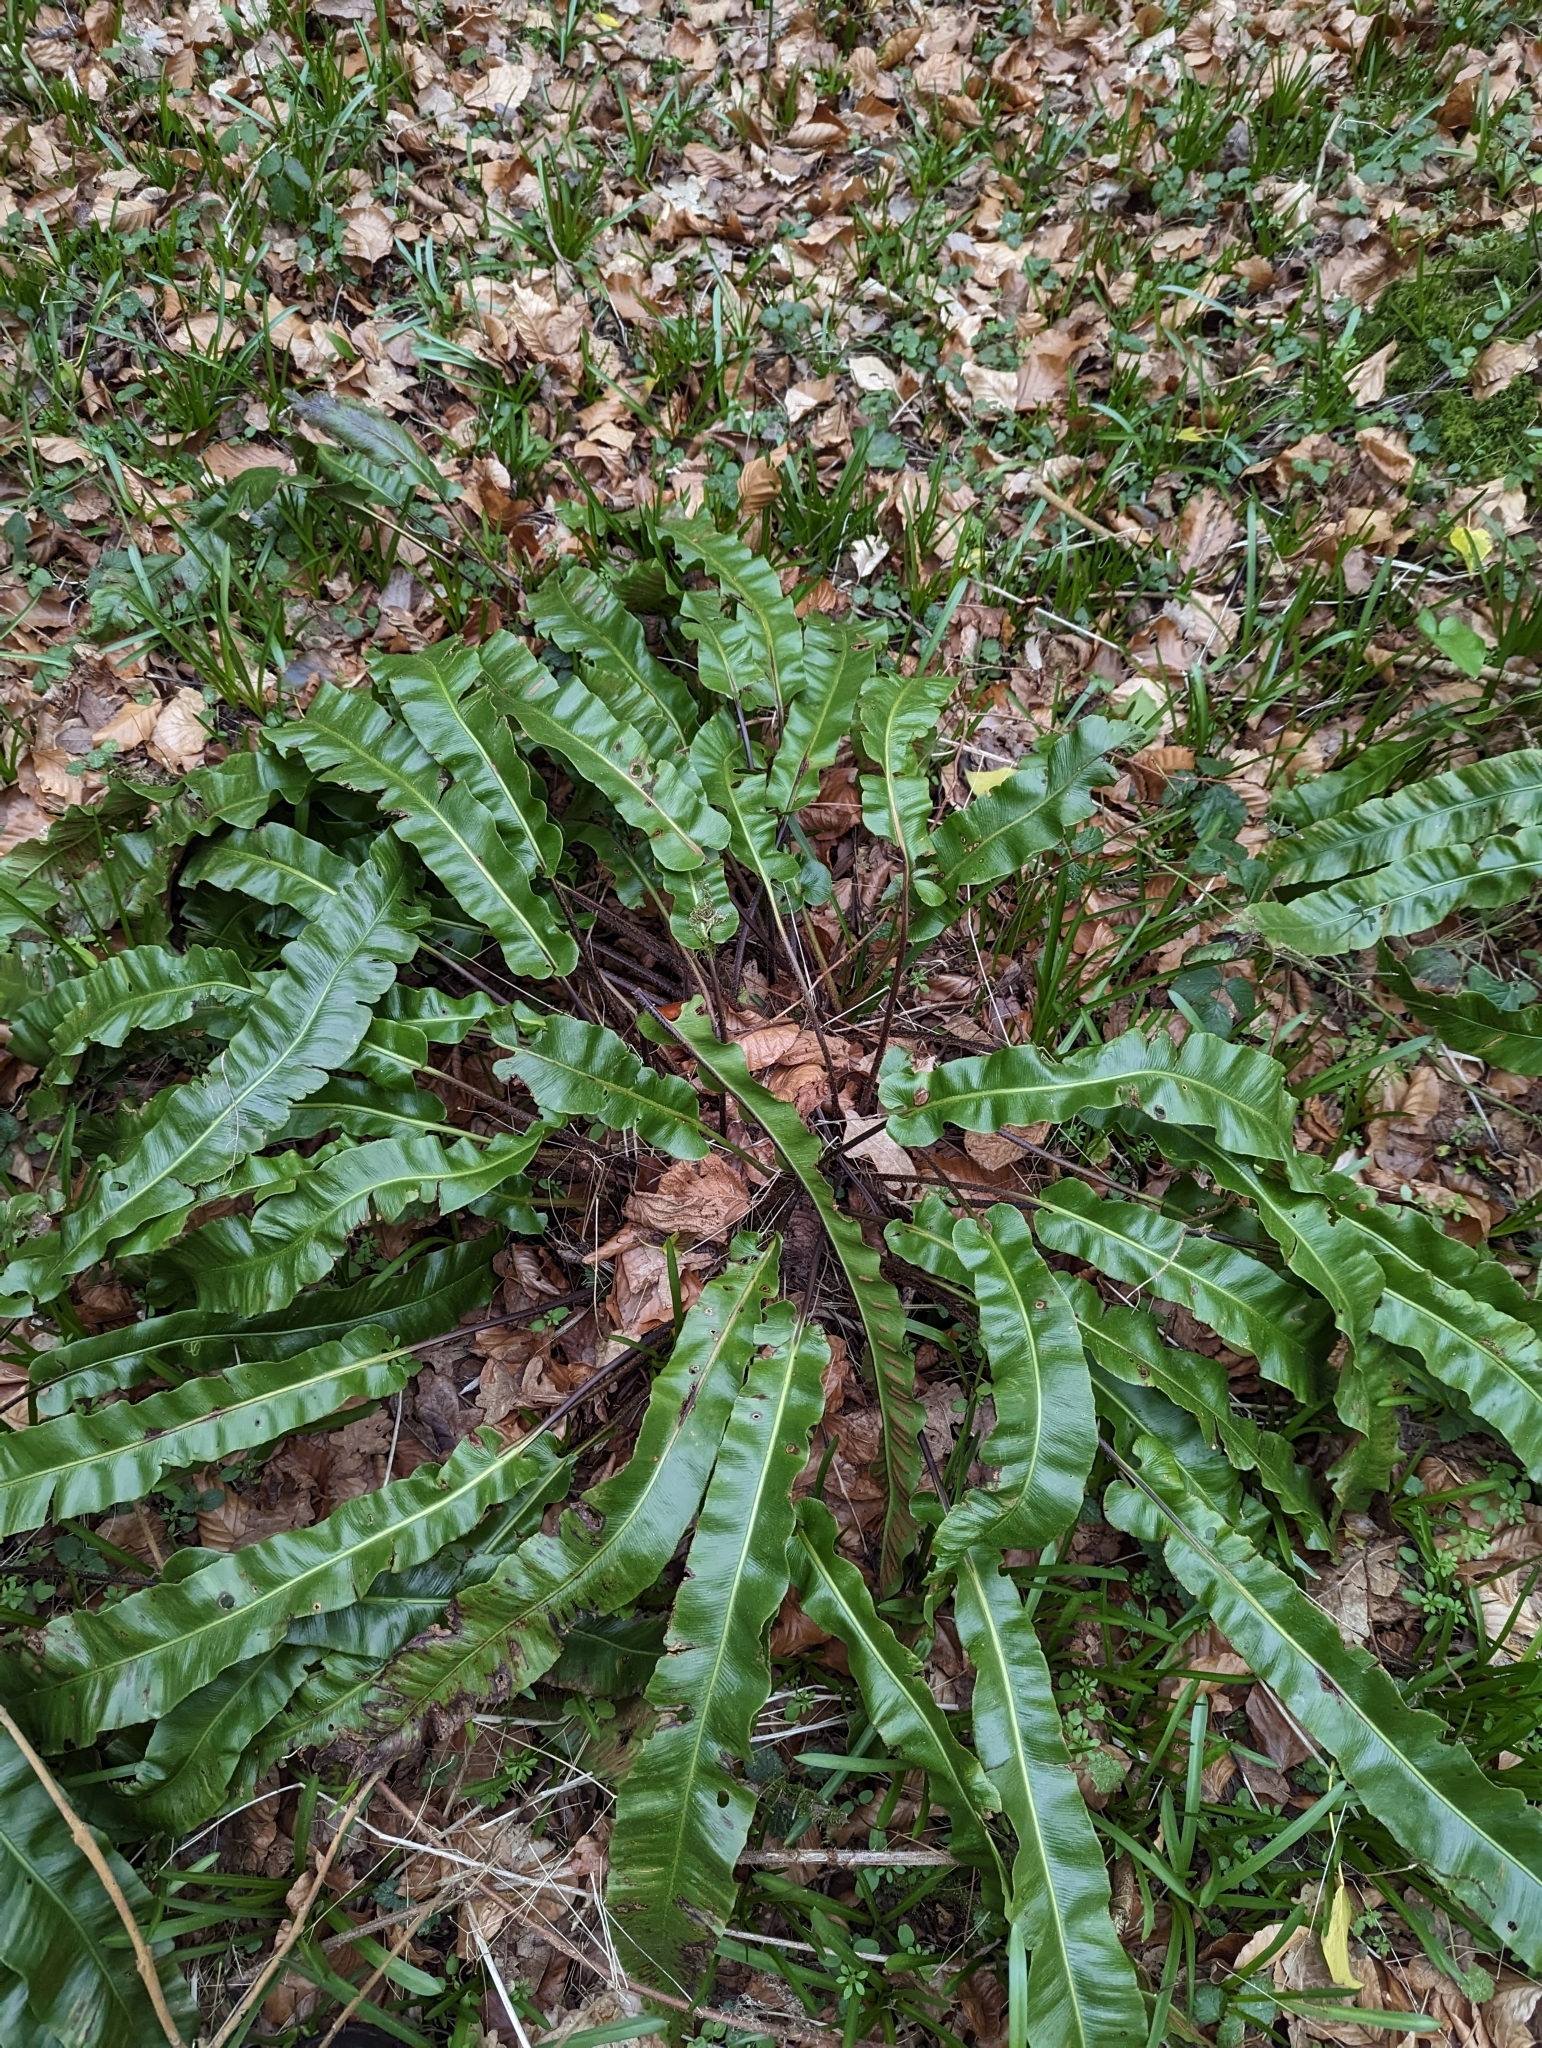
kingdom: Plantae
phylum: Tracheophyta
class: Polypodiopsida
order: Polypodiales
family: Aspleniaceae
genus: Asplenium
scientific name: Asplenium scolopendrium
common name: Hart's-tongue fern
